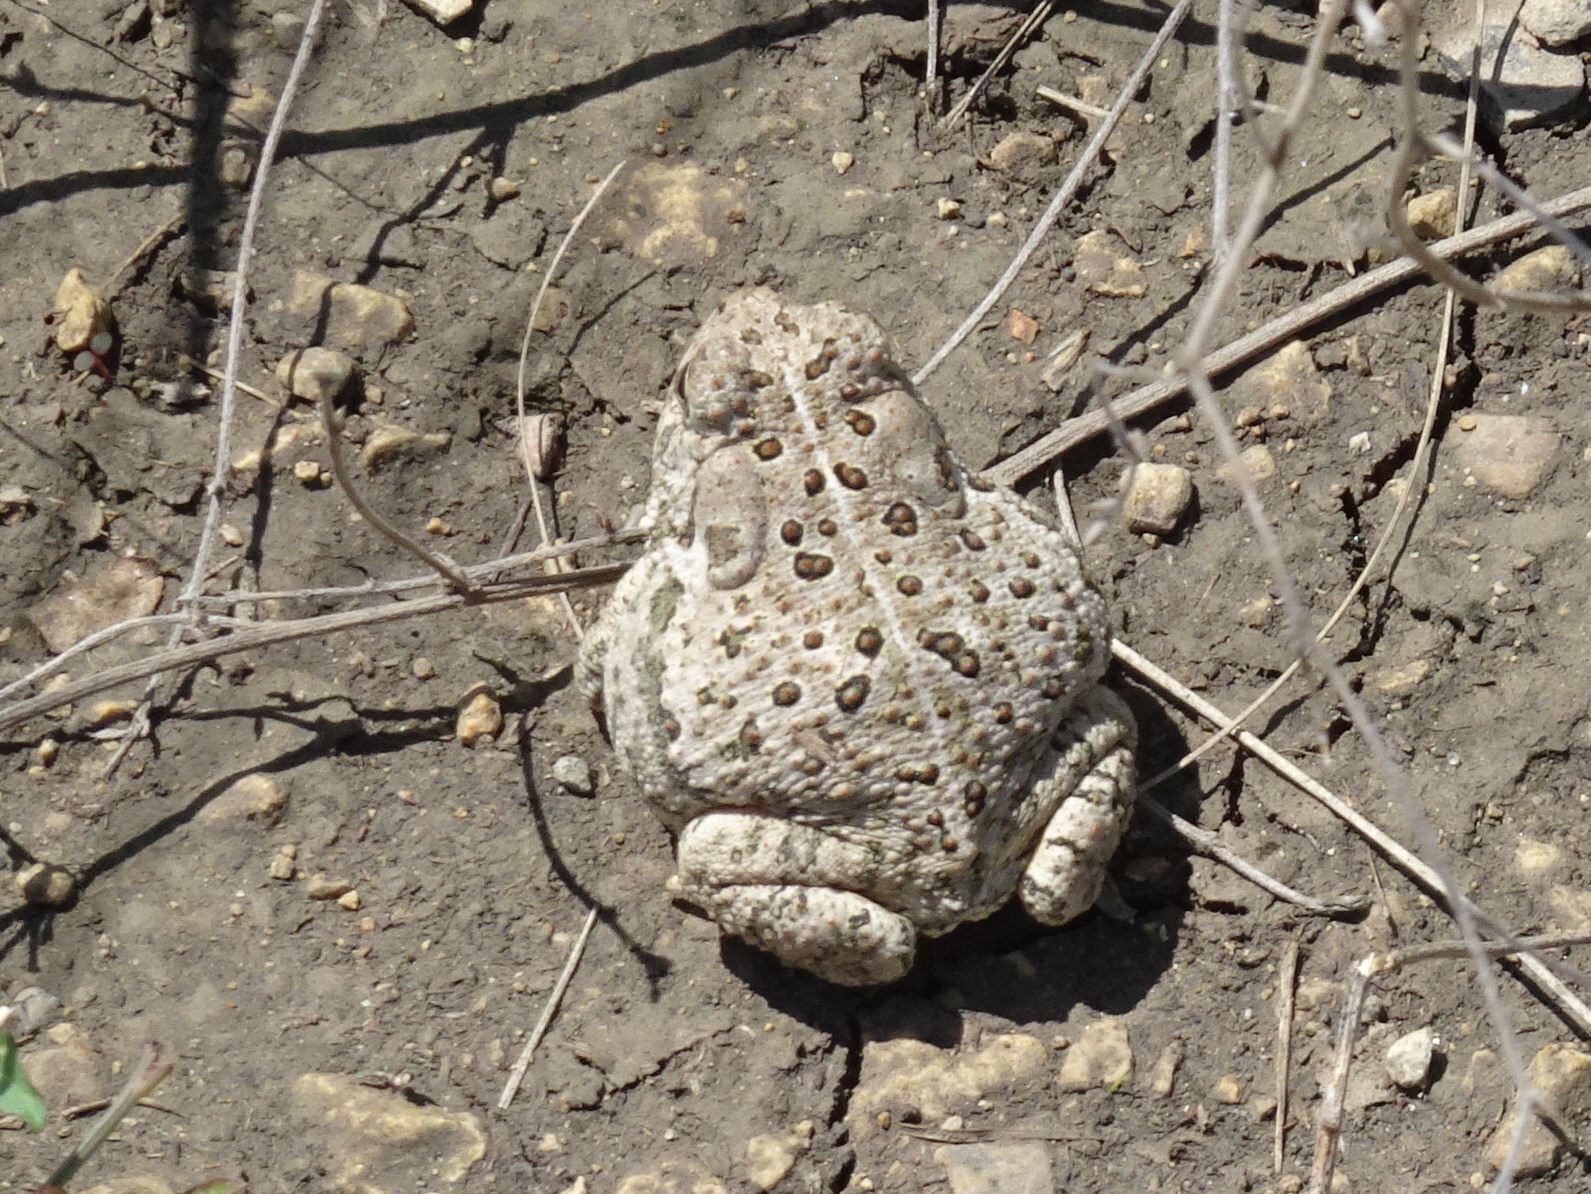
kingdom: Animalia
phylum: Chordata
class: Amphibia
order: Anura
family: Bufonidae
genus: Anaxyrus
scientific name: Anaxyrus woodhousii
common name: Woodhouse's toad
